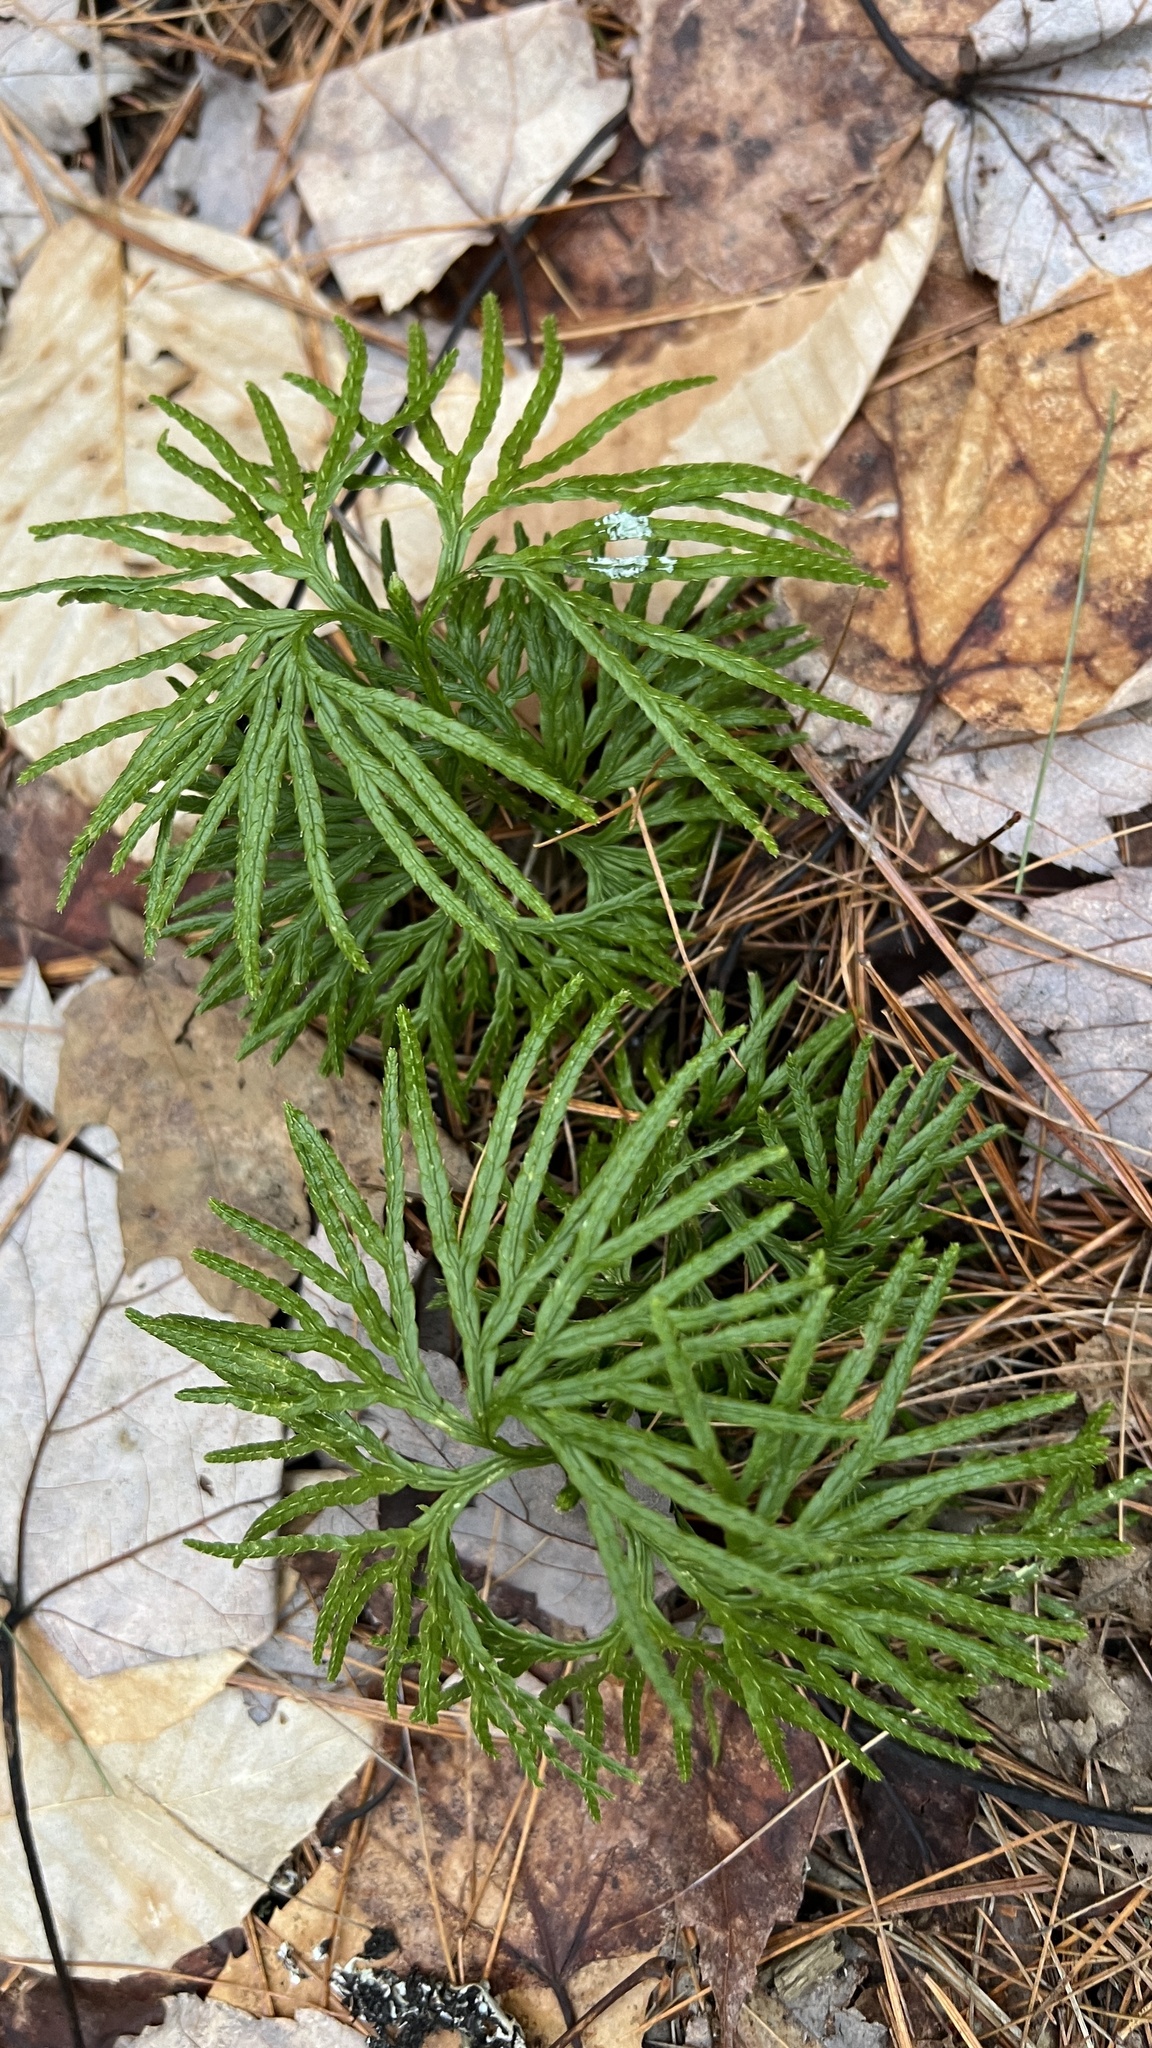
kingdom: Plantae
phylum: Tracheophyta
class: Lycopodiopsida
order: Lycopodiales
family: Lycopodiaceae
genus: Diphasiastrum
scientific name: Diphasiastrum digitatum
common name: Southern running-pine
